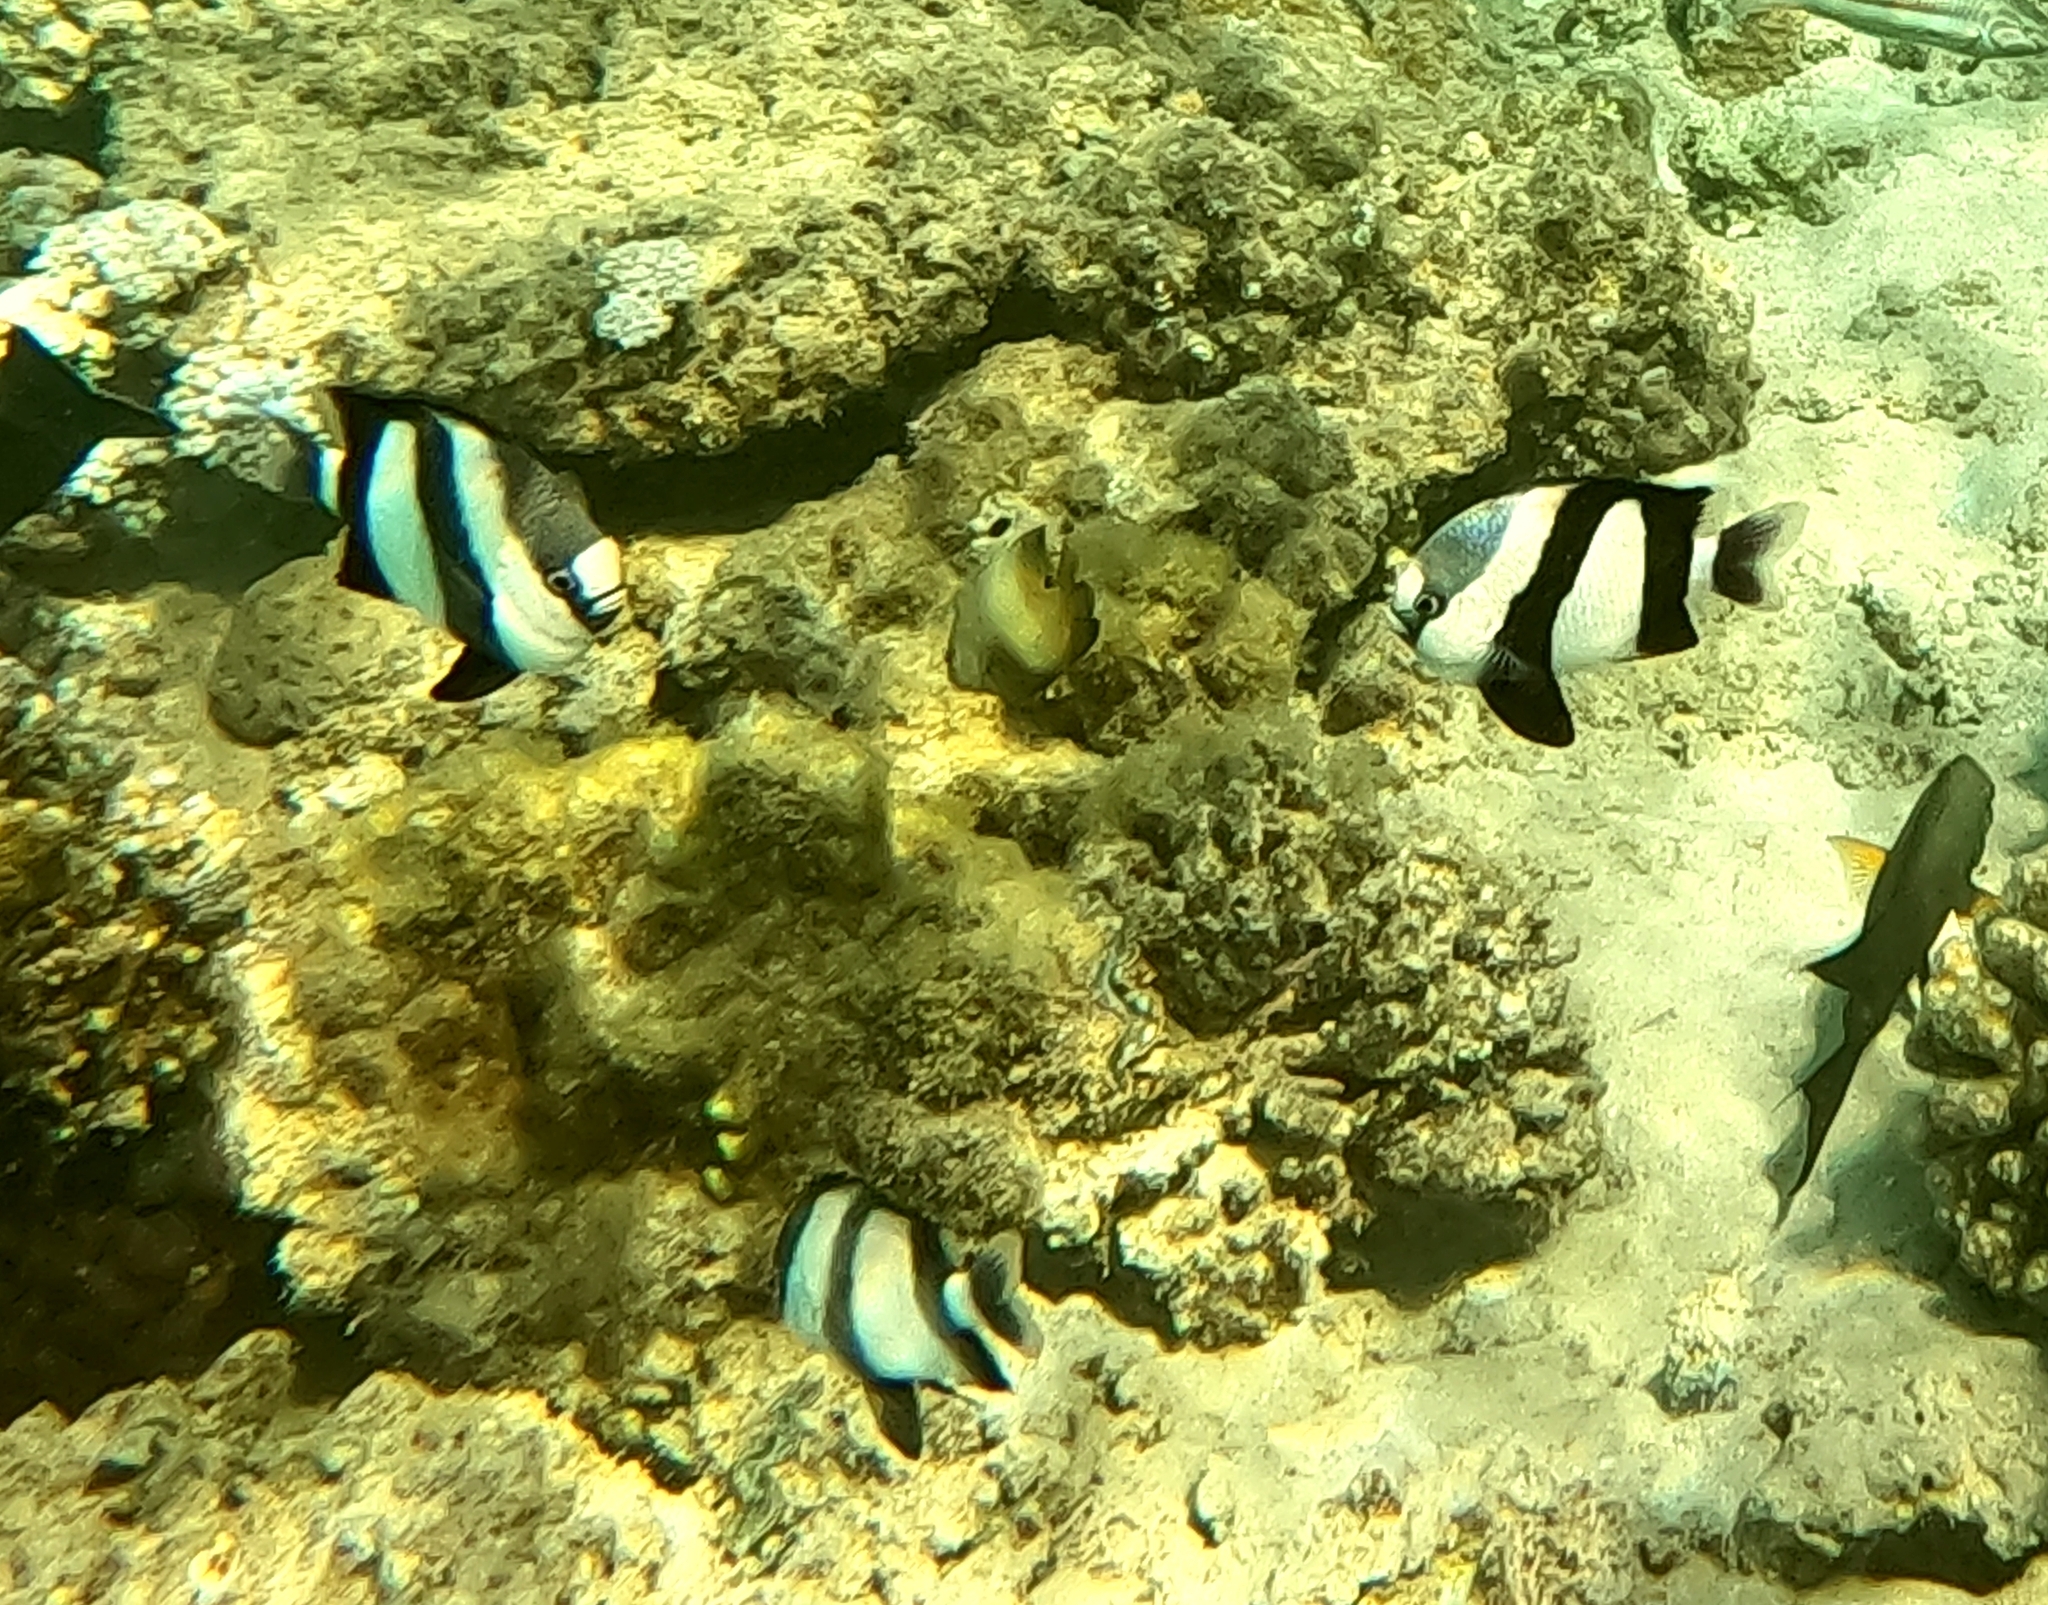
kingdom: Animalia
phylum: Chordata
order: Perciformes
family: Pomacentridae
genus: Dascyllus
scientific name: Dascyllus abudafur
